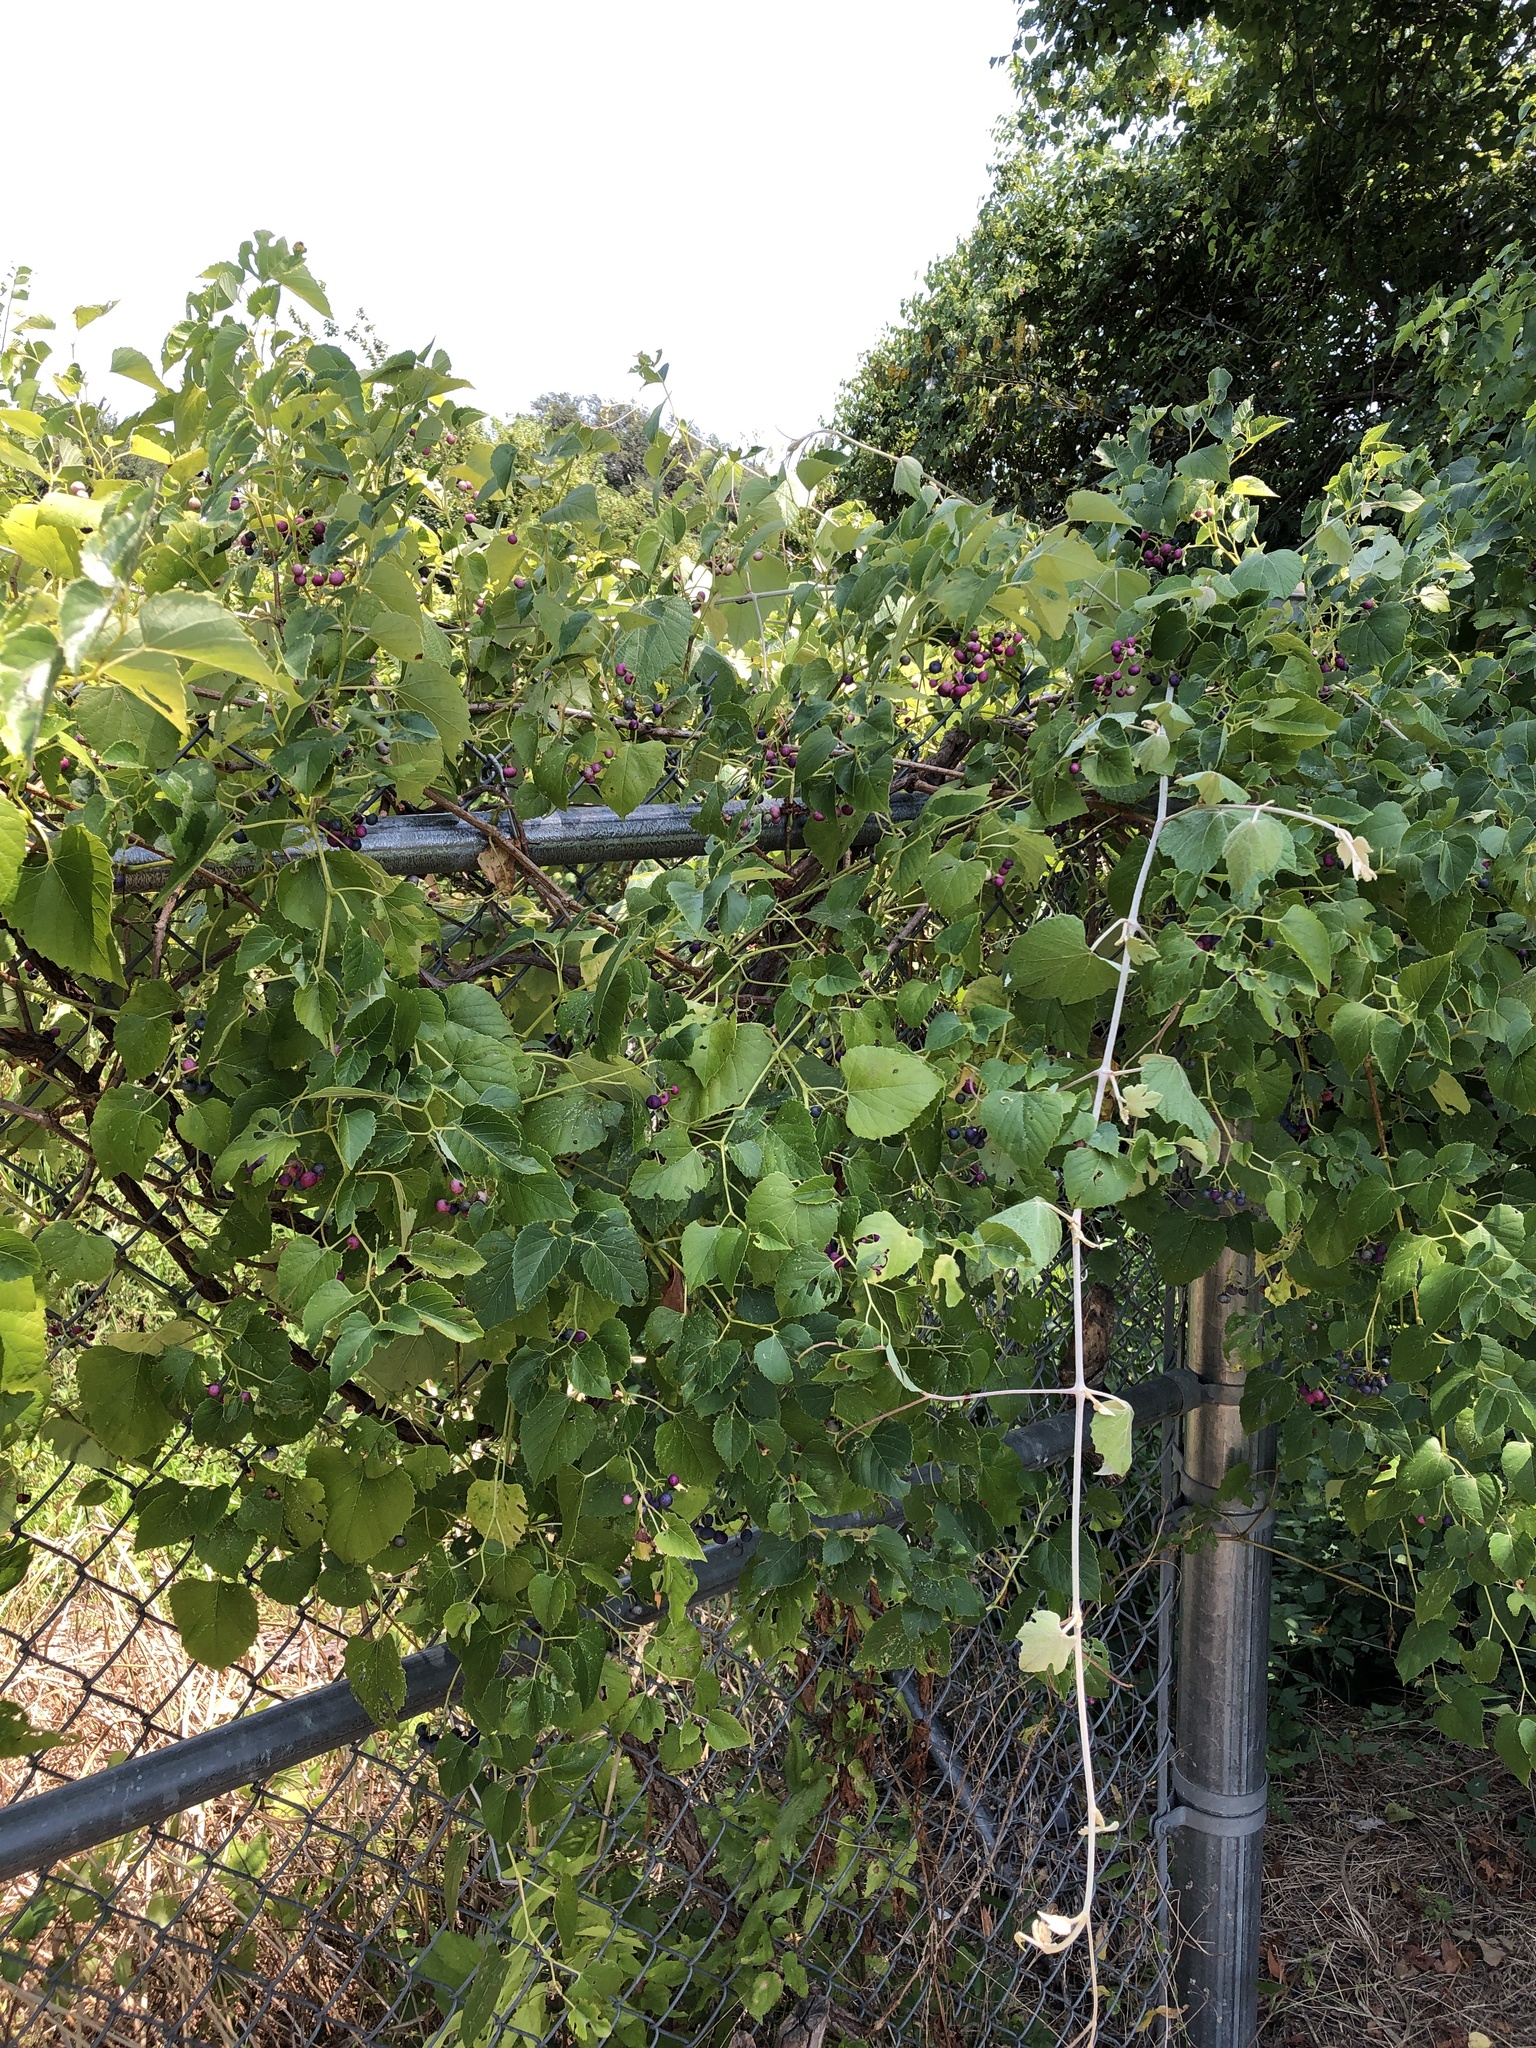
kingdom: Plantae
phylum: Tracheophyta
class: Magnoliopsida
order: Vitales
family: Vitaceae
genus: Ampelopsis
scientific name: Ampelopsis cordata
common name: Heart-leaf ampelopsis
